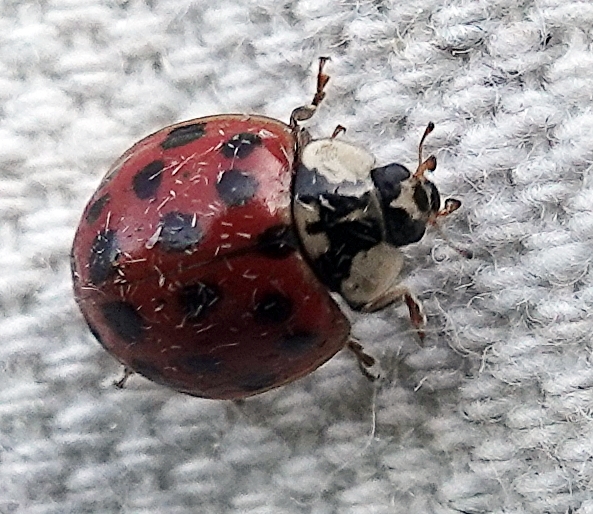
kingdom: Animalia
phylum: Arthropoda
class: Insecta
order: Coleoptera
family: Coccinellidae
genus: Harmonia
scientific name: Harmonia axyridis
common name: Harlequin ladybird
